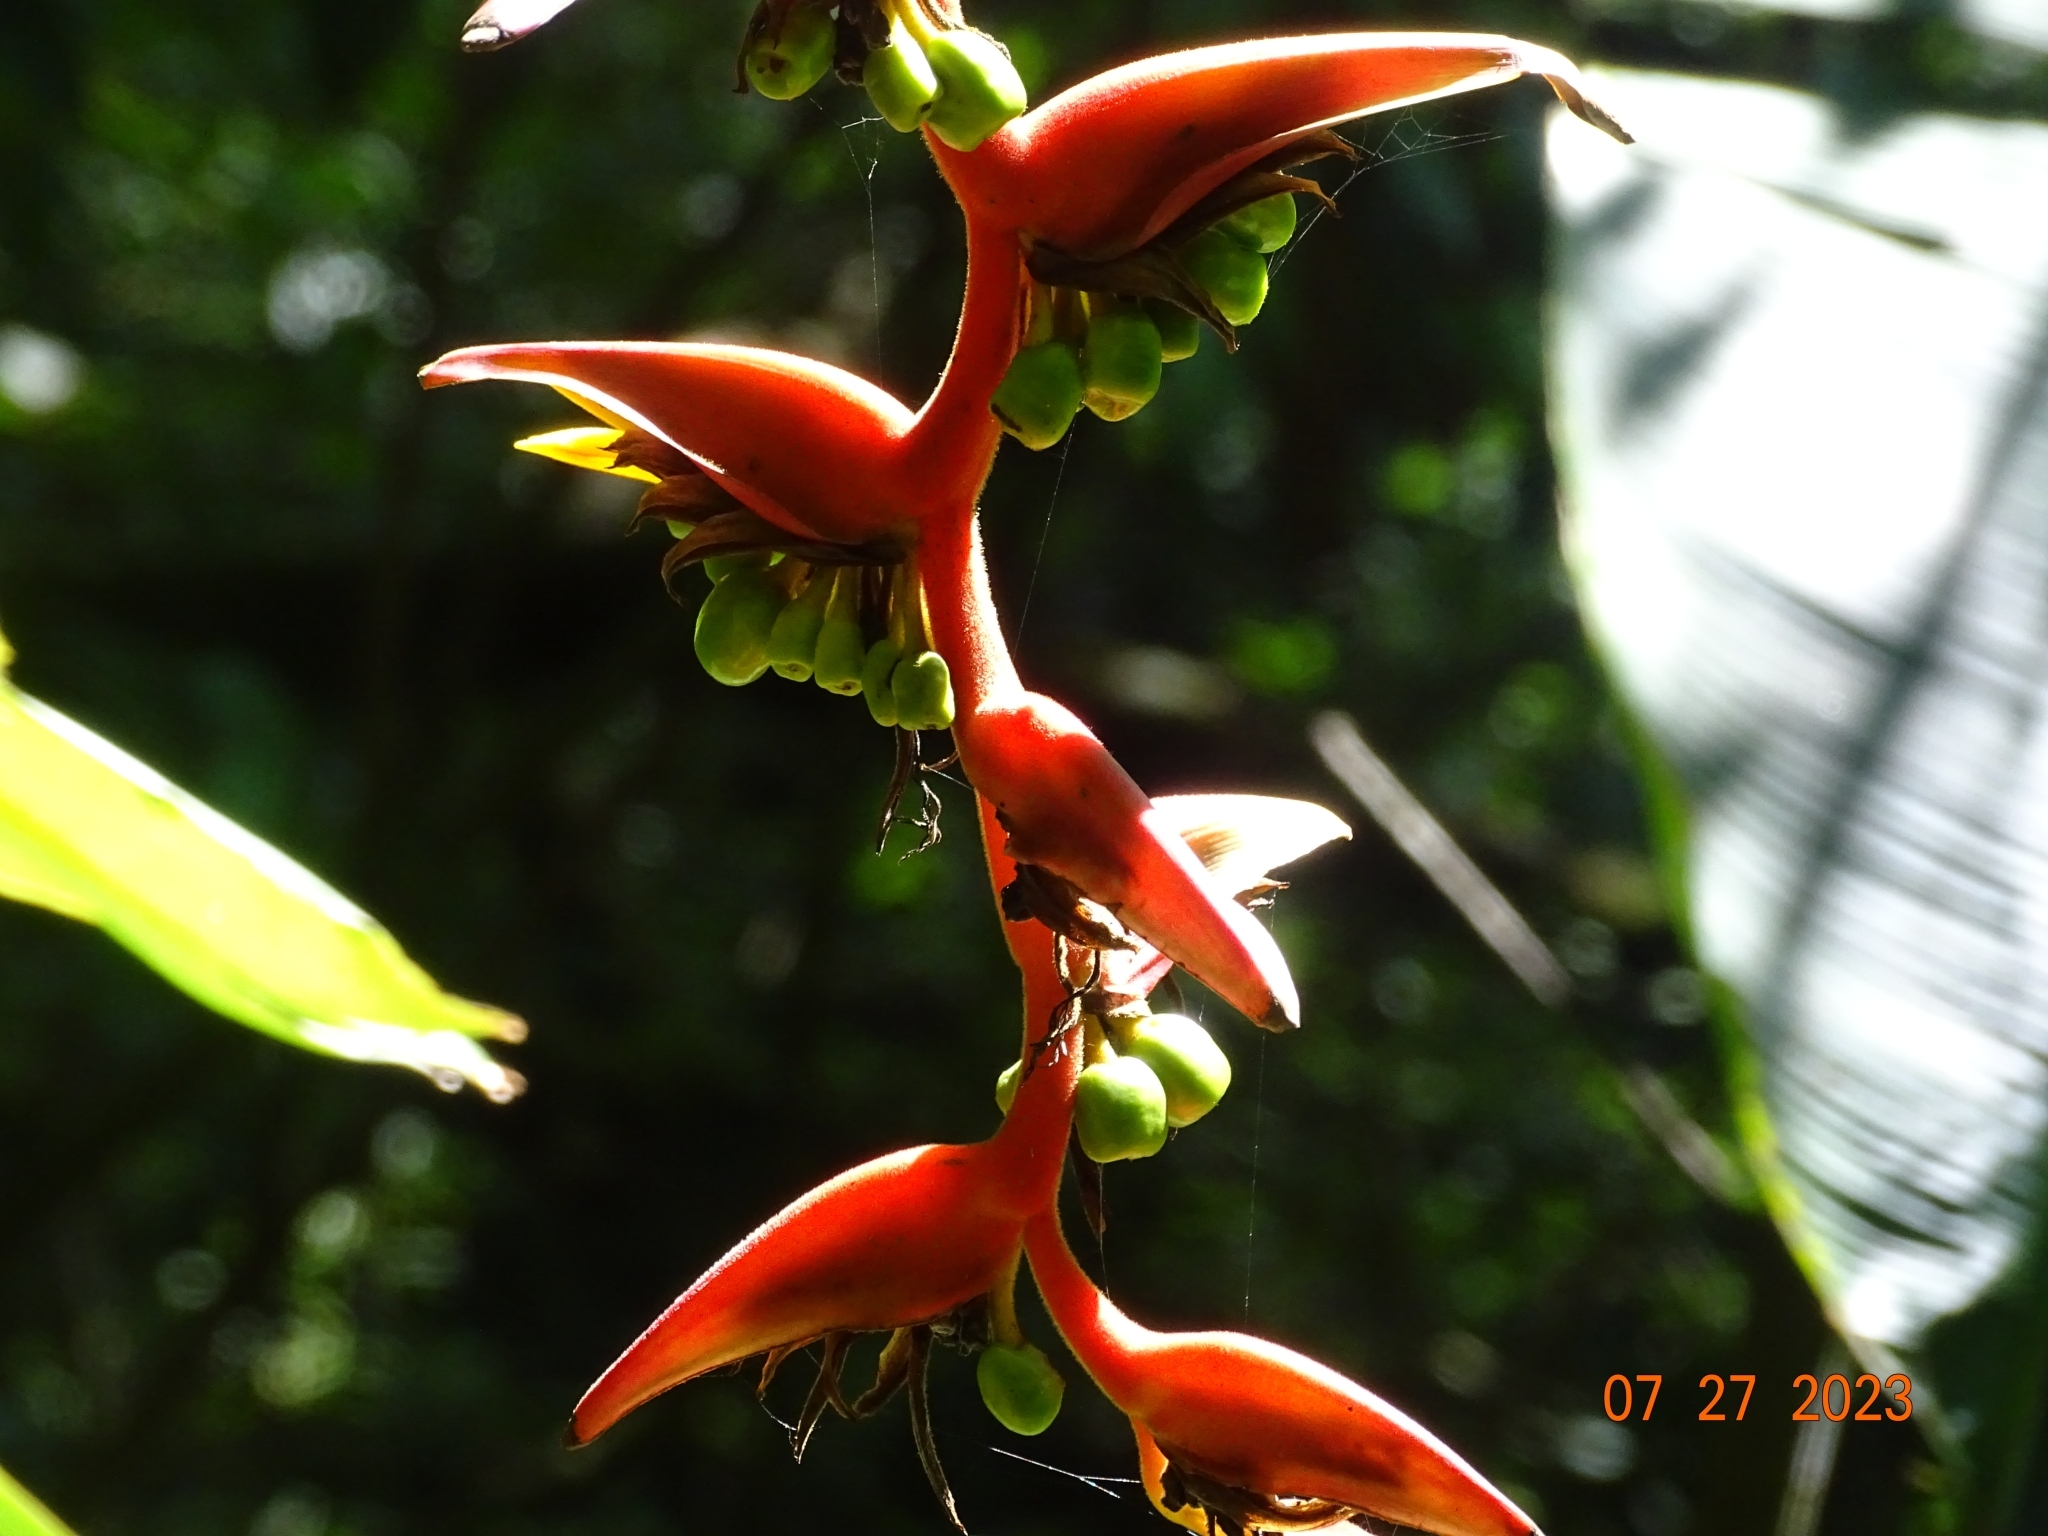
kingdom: Plantae
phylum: Tracheophyta
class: Liliopsida
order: Zingiberales
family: Heliconiaceae
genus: Heliconia
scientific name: Heliconia mooreana
